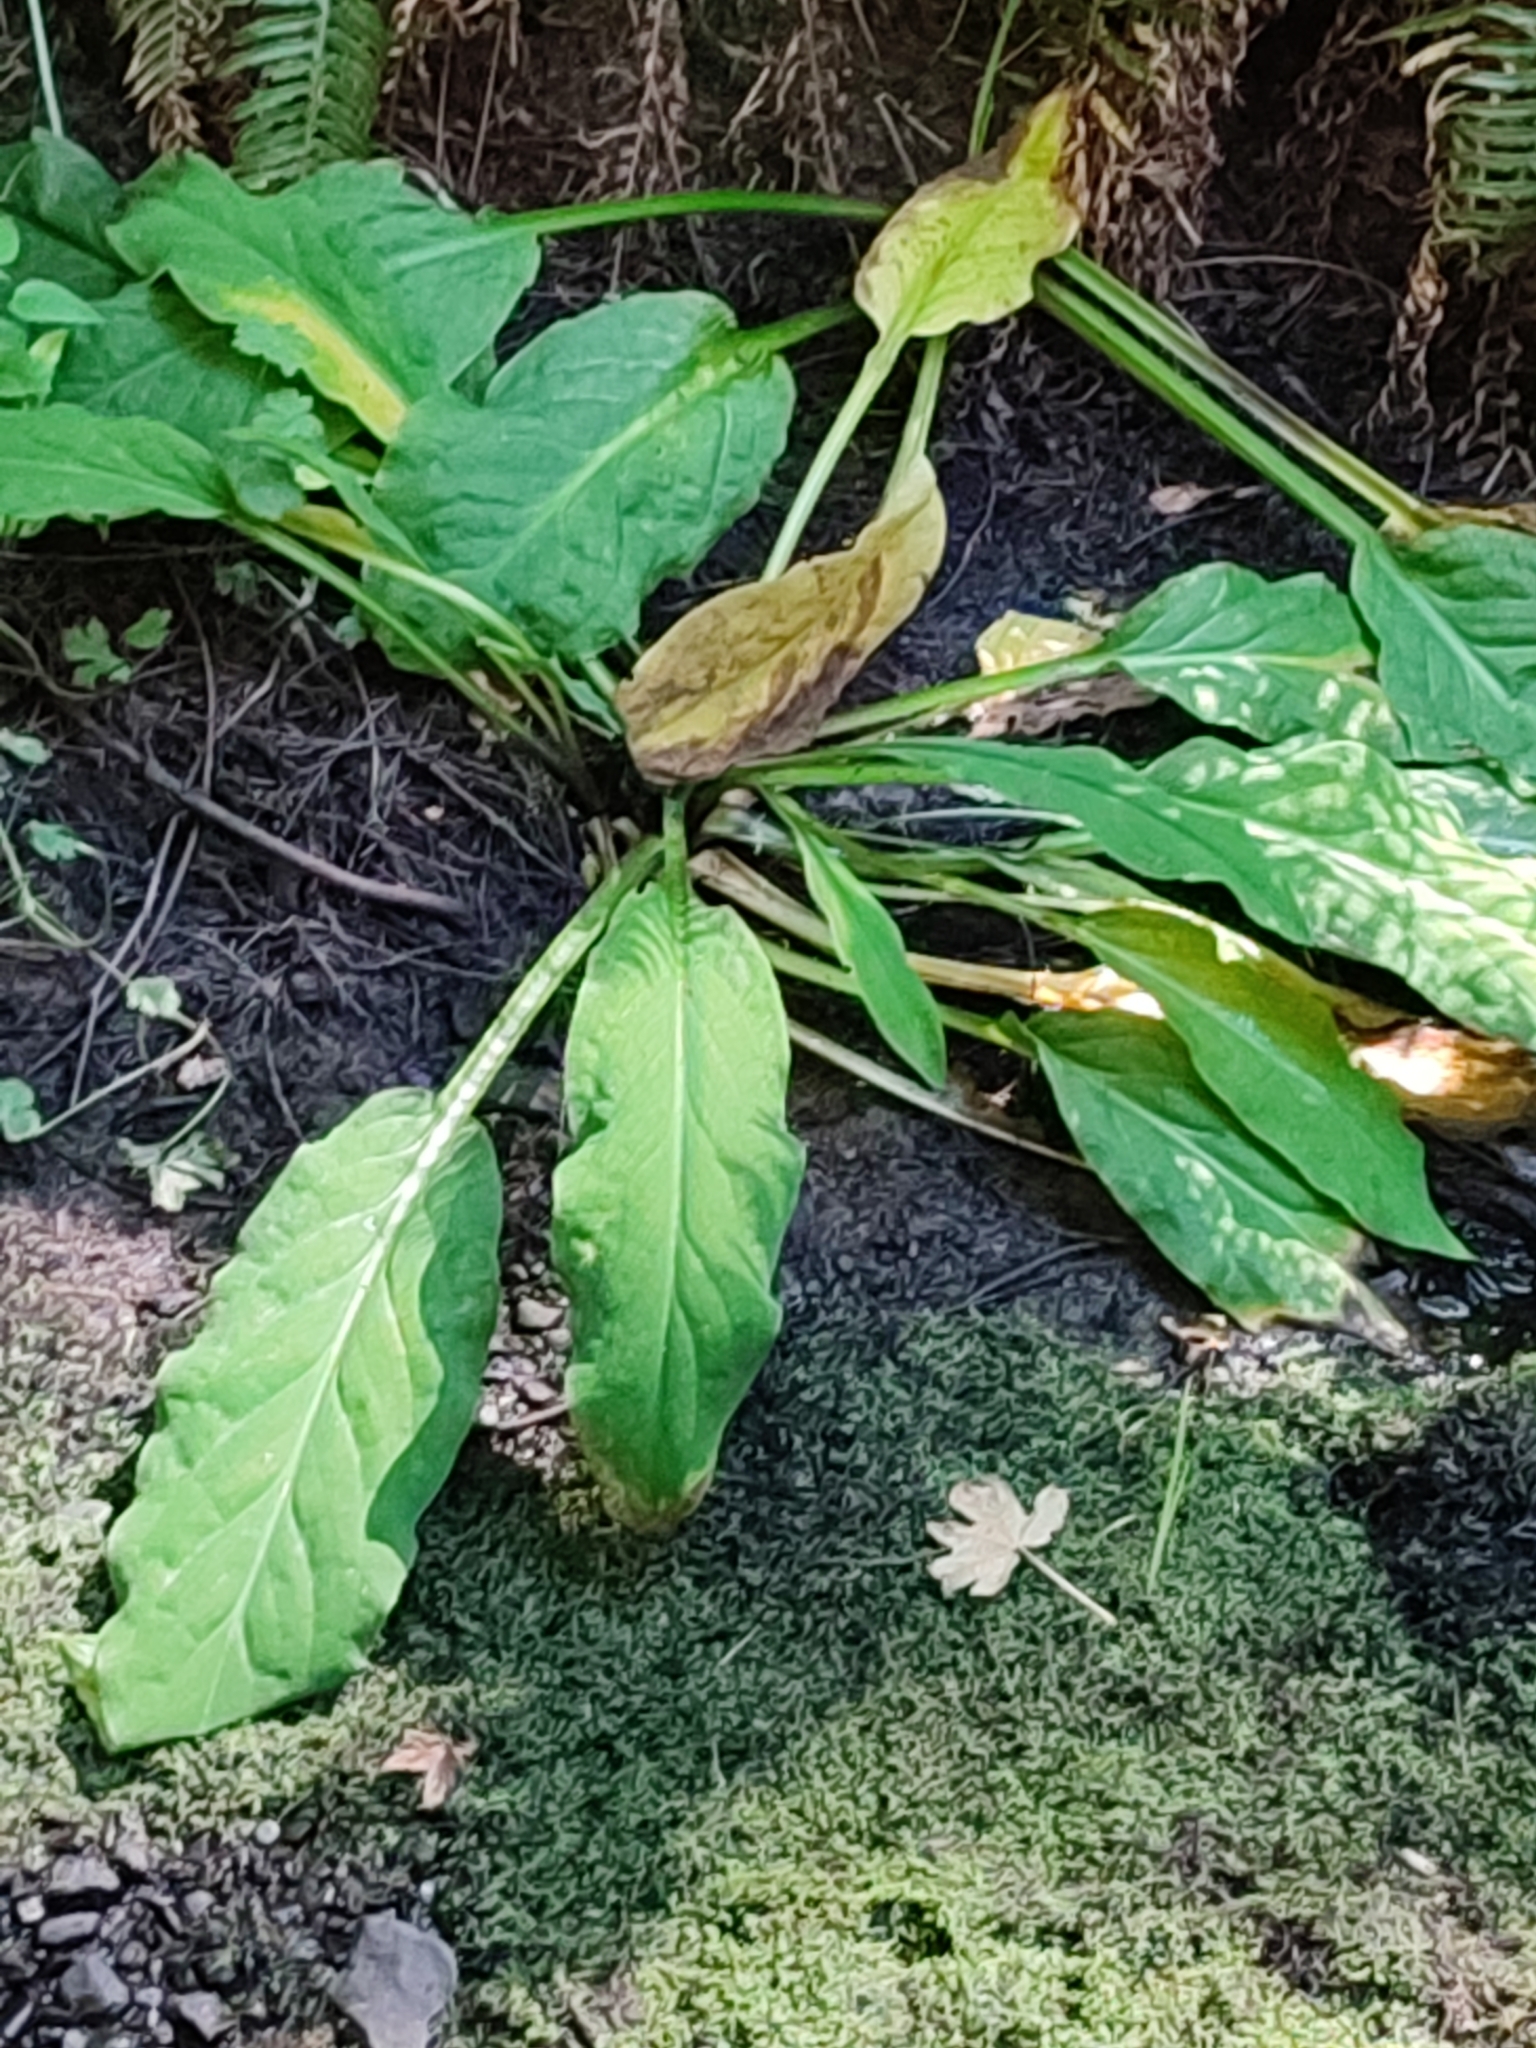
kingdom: Plantae
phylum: Tracheophyta
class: Liliopsida
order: Alismatales
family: Araceae
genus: Lysichiton
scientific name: Lysichiton americanus
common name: American skunk cabbage
